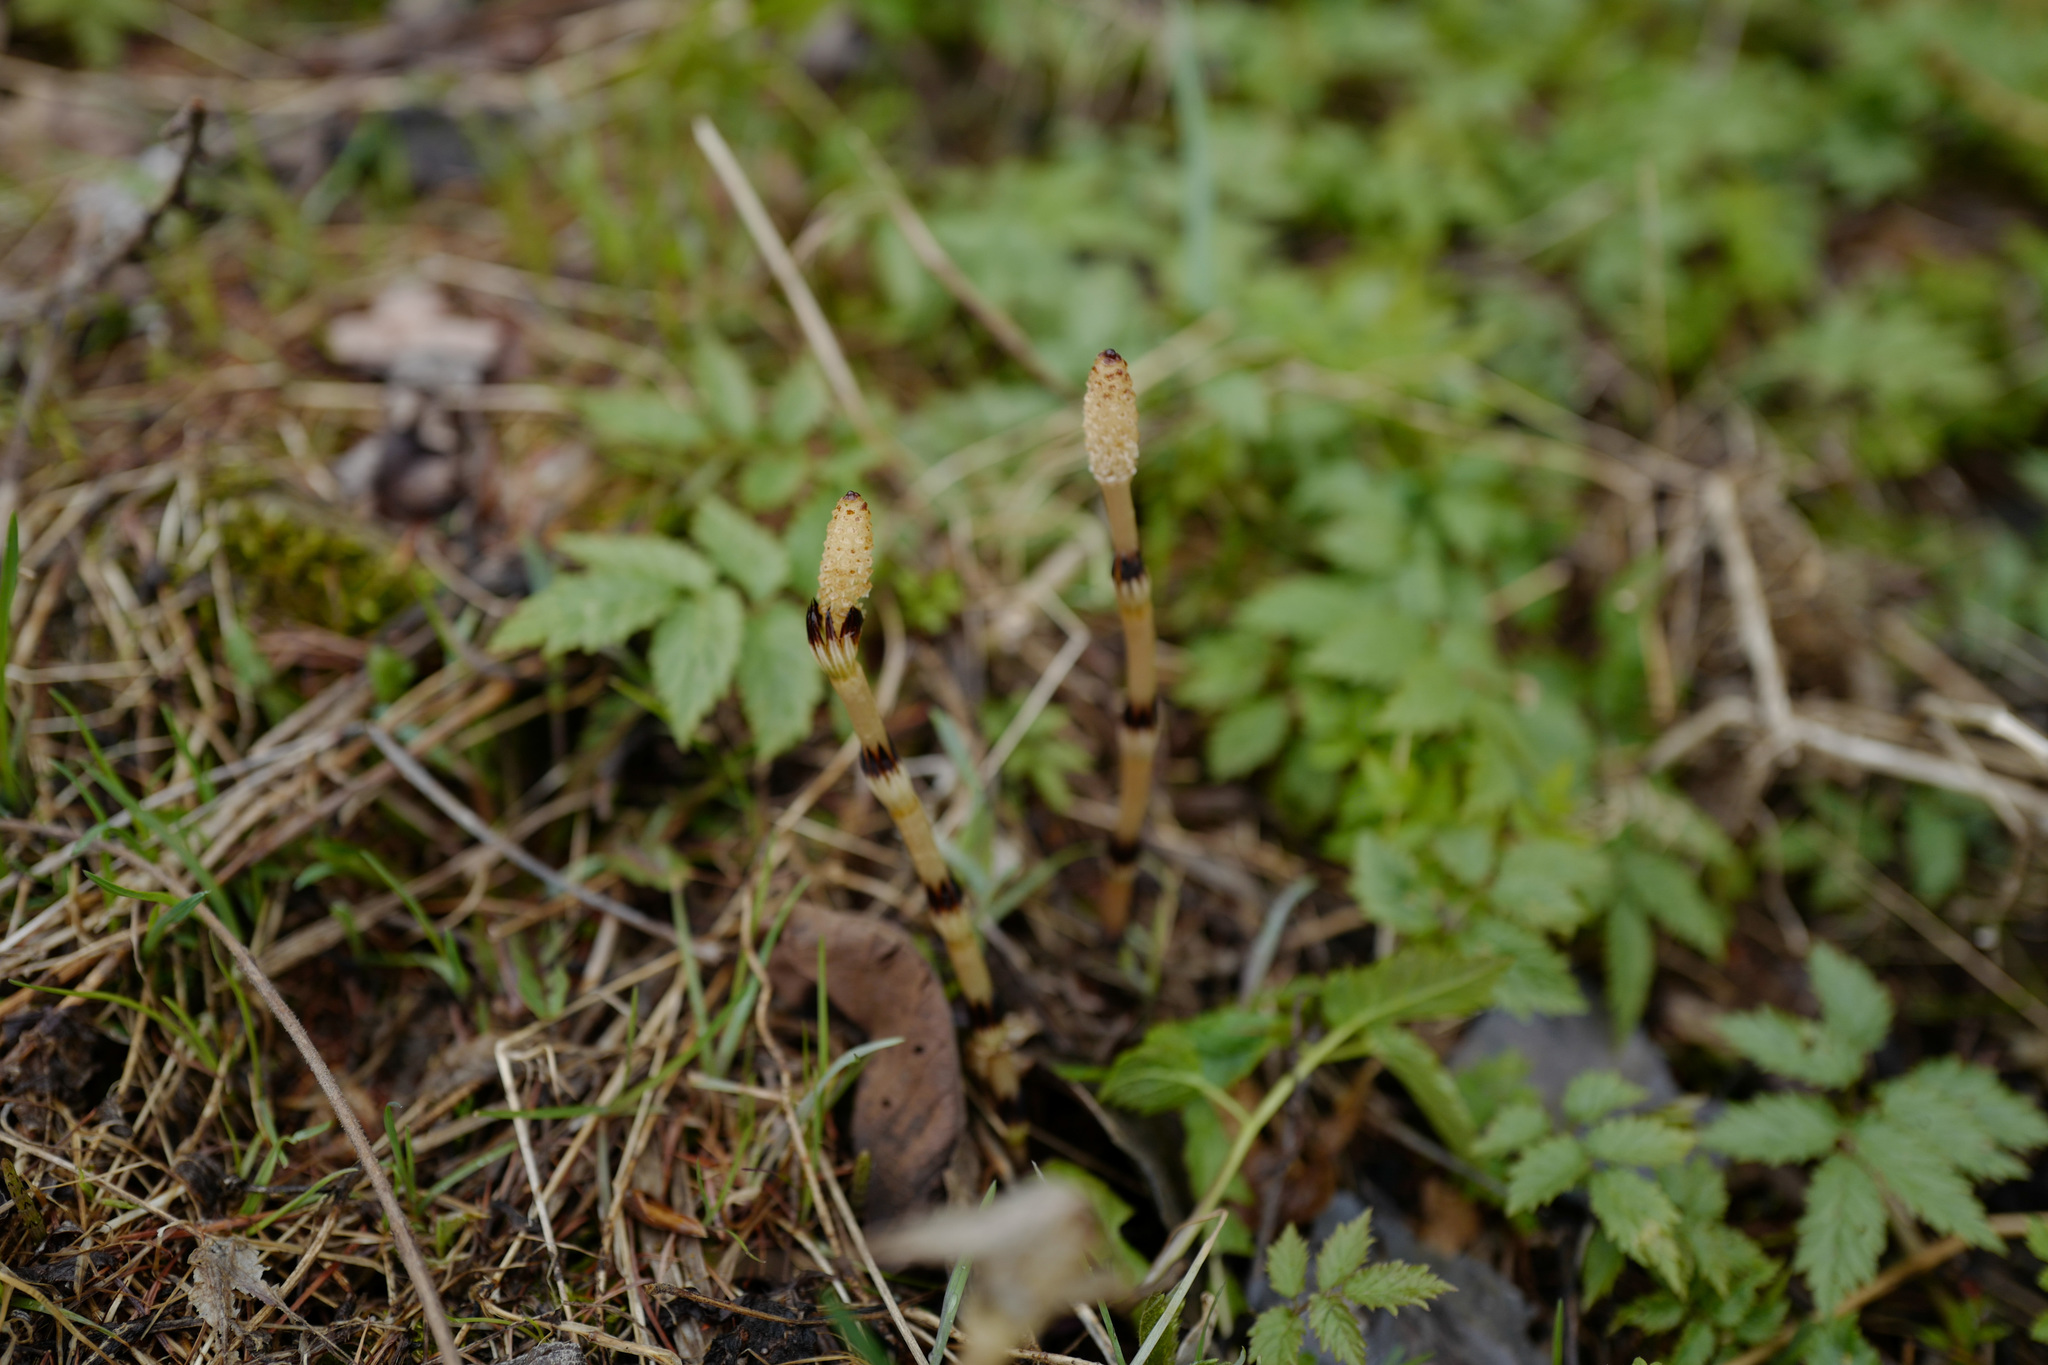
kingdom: Plantae
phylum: Tracheophyta
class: Polypodiopsida
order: Equisetales
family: Equisetaceae
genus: Equisetum
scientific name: Equisetum arvense
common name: Field horsetail
